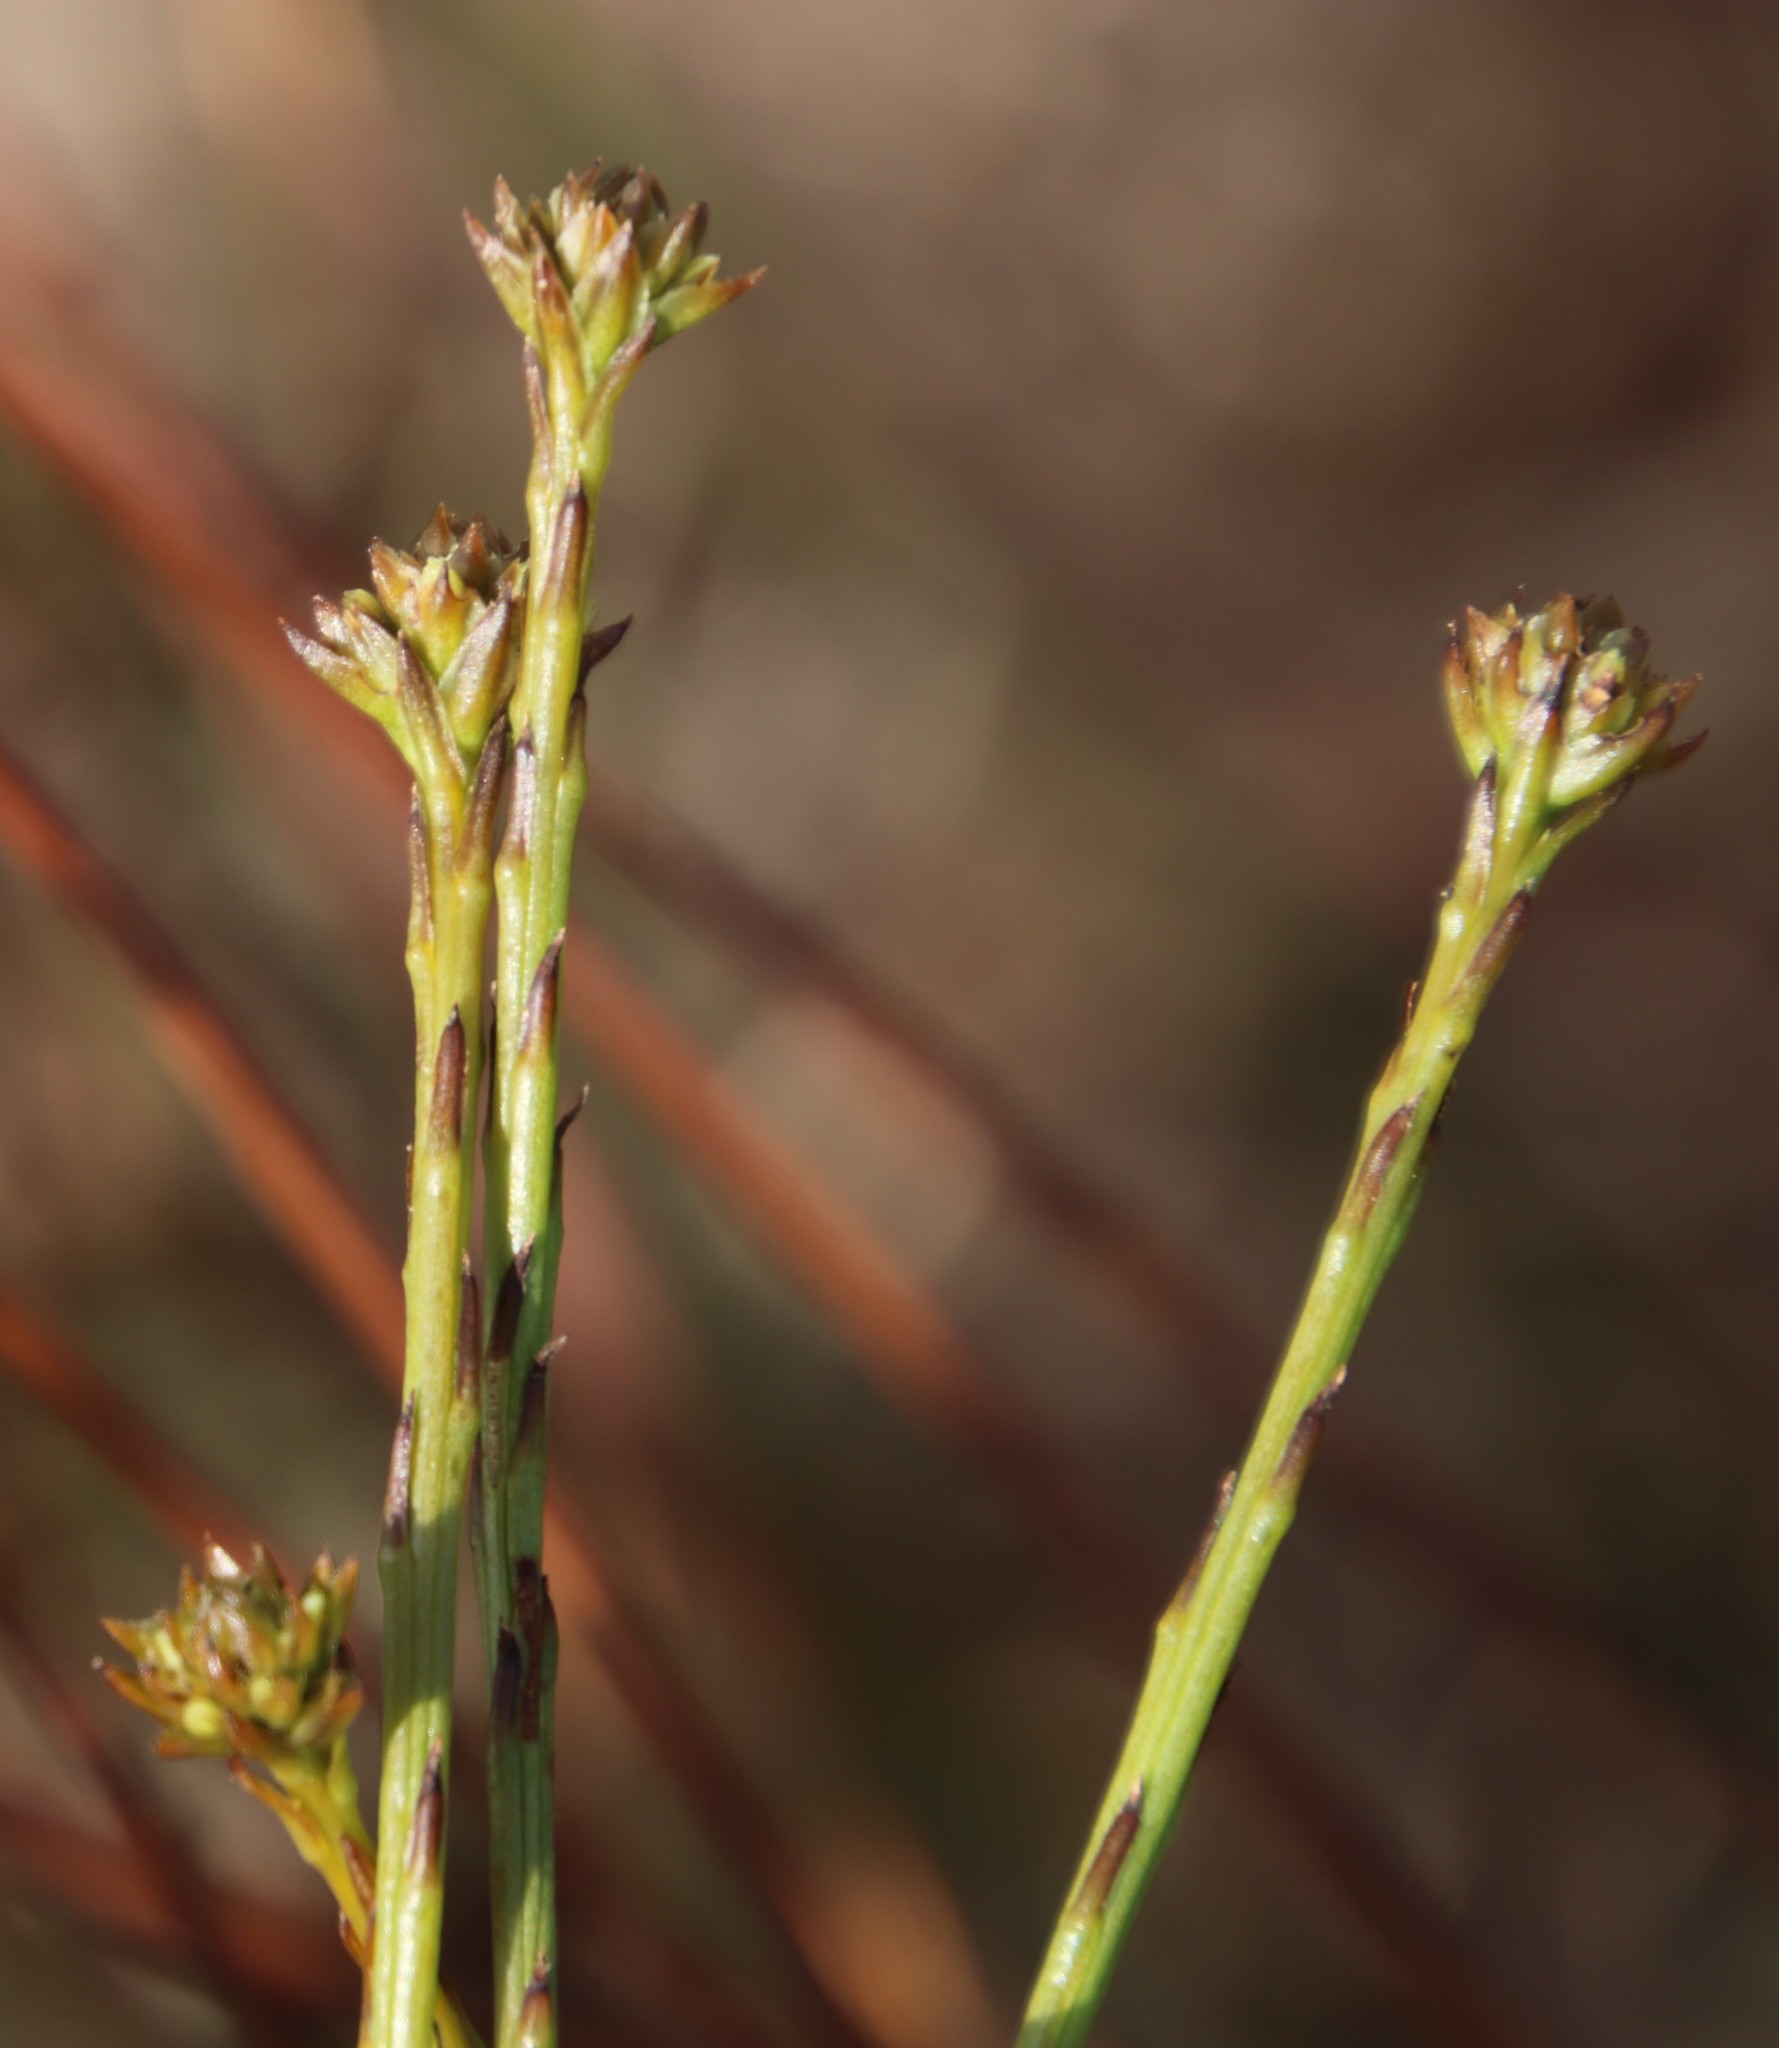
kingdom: Plantae
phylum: Tracheophyta
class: Magnoliopsida
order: Santalales
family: Thesiaceae
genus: Thesium
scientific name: Thesium virgatum
